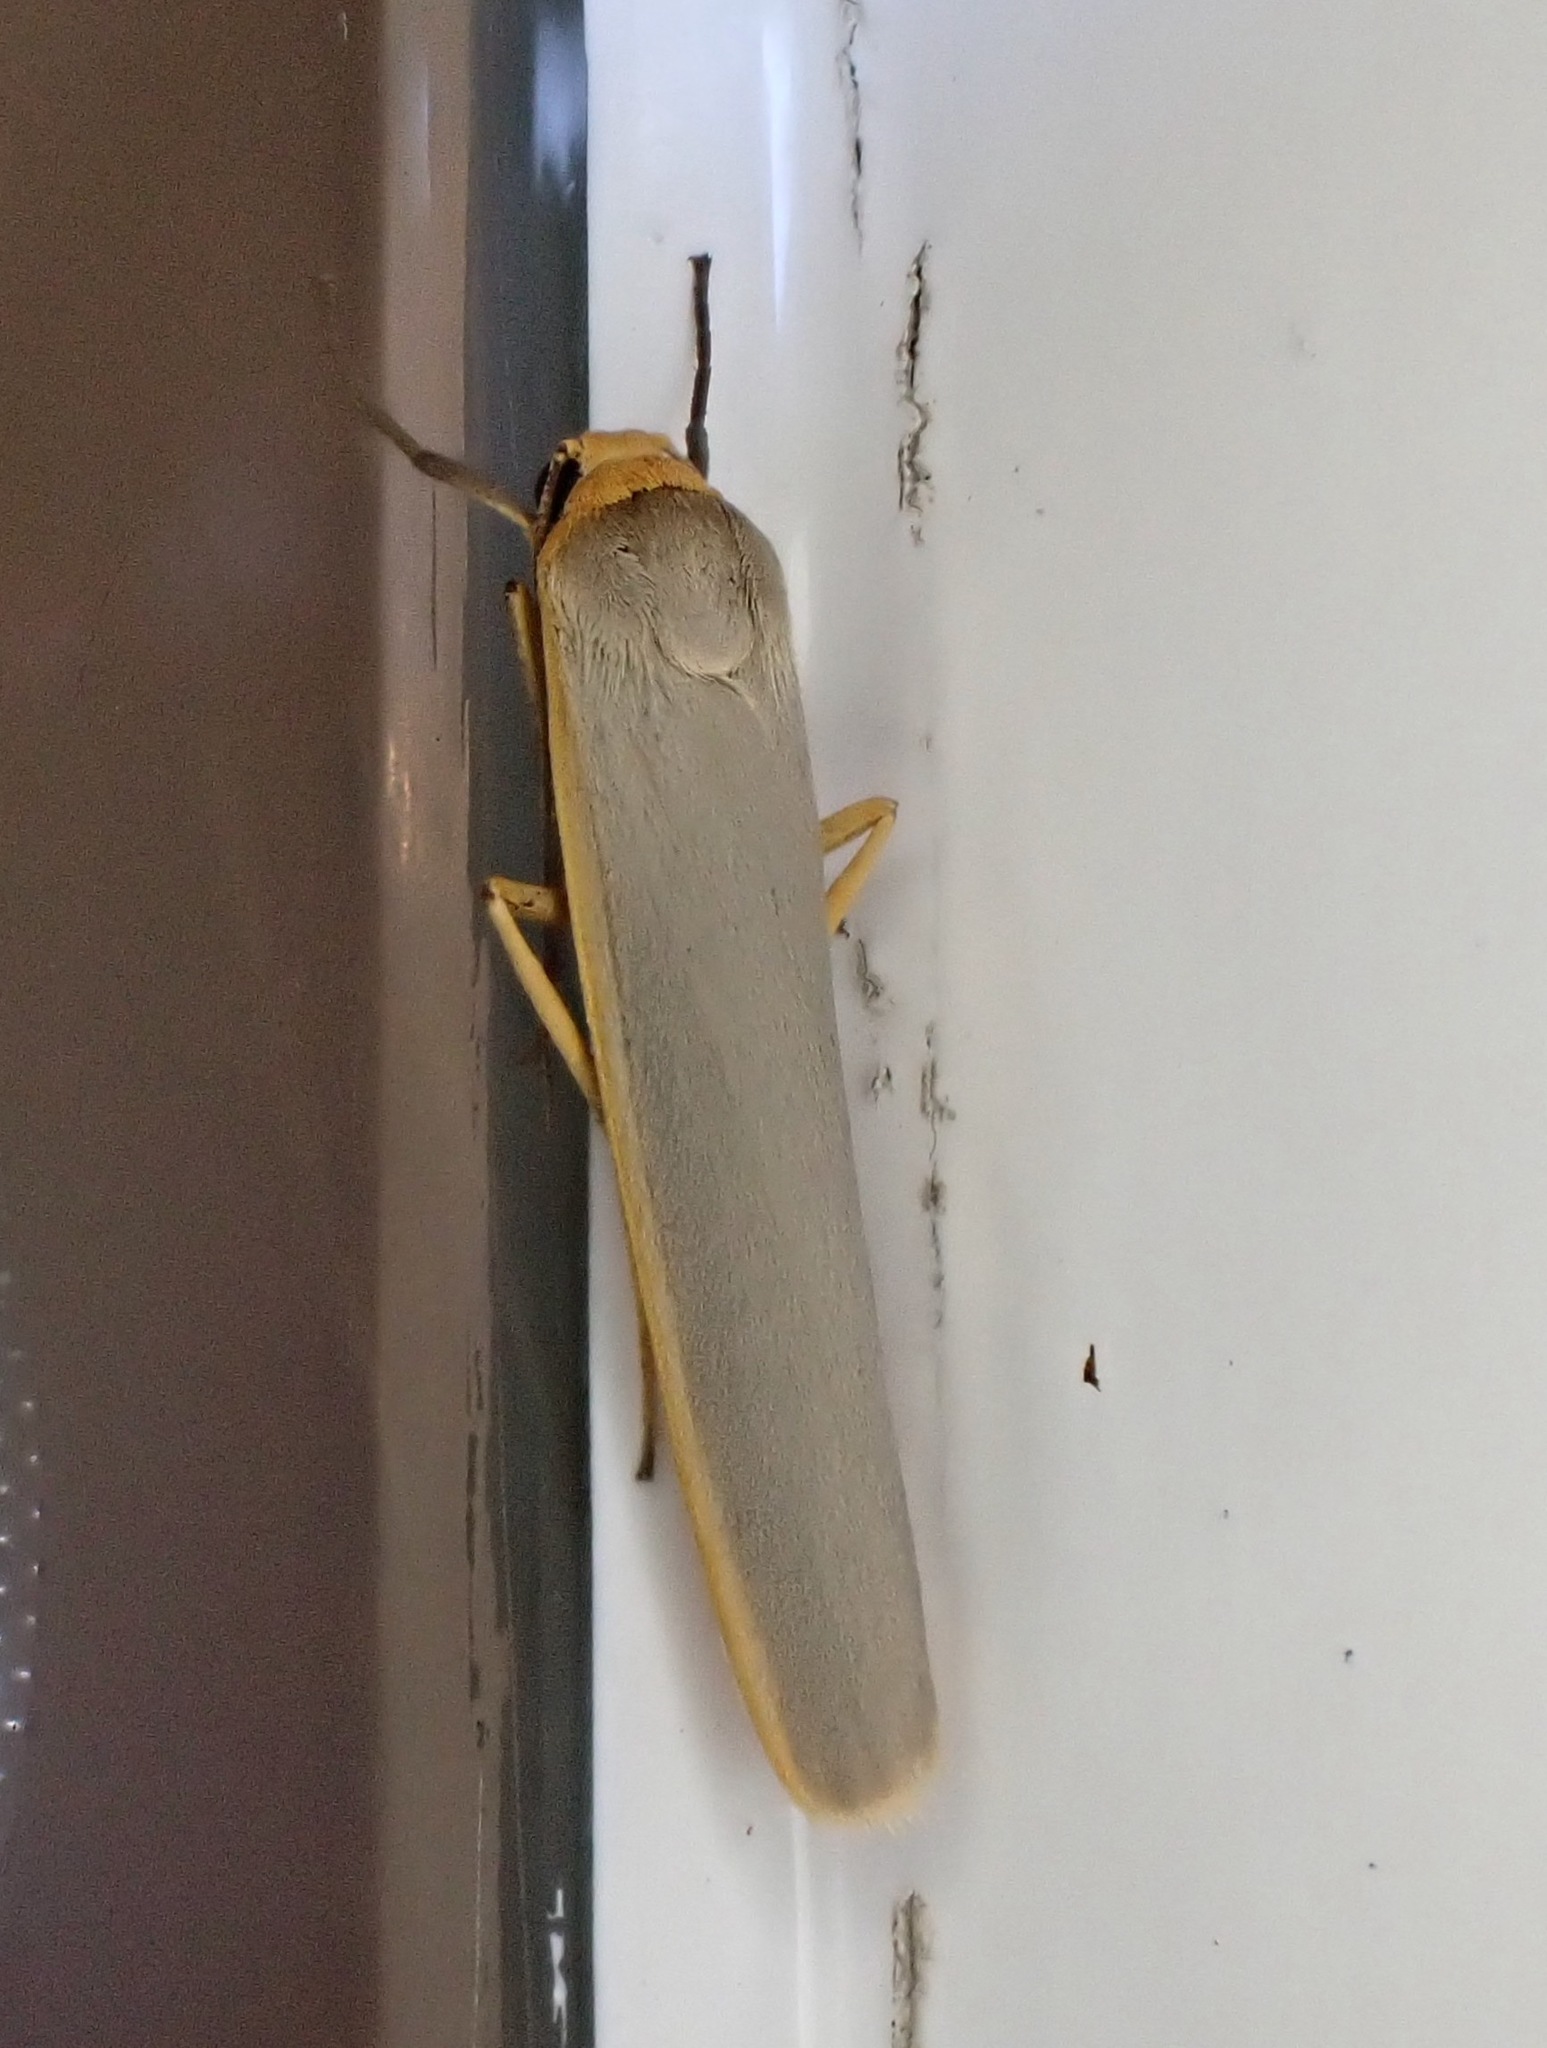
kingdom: Animalia
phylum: Arthropoda
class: Insecta
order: Lepidoptera
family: Erebidae
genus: Manulea
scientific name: Manulea complana
